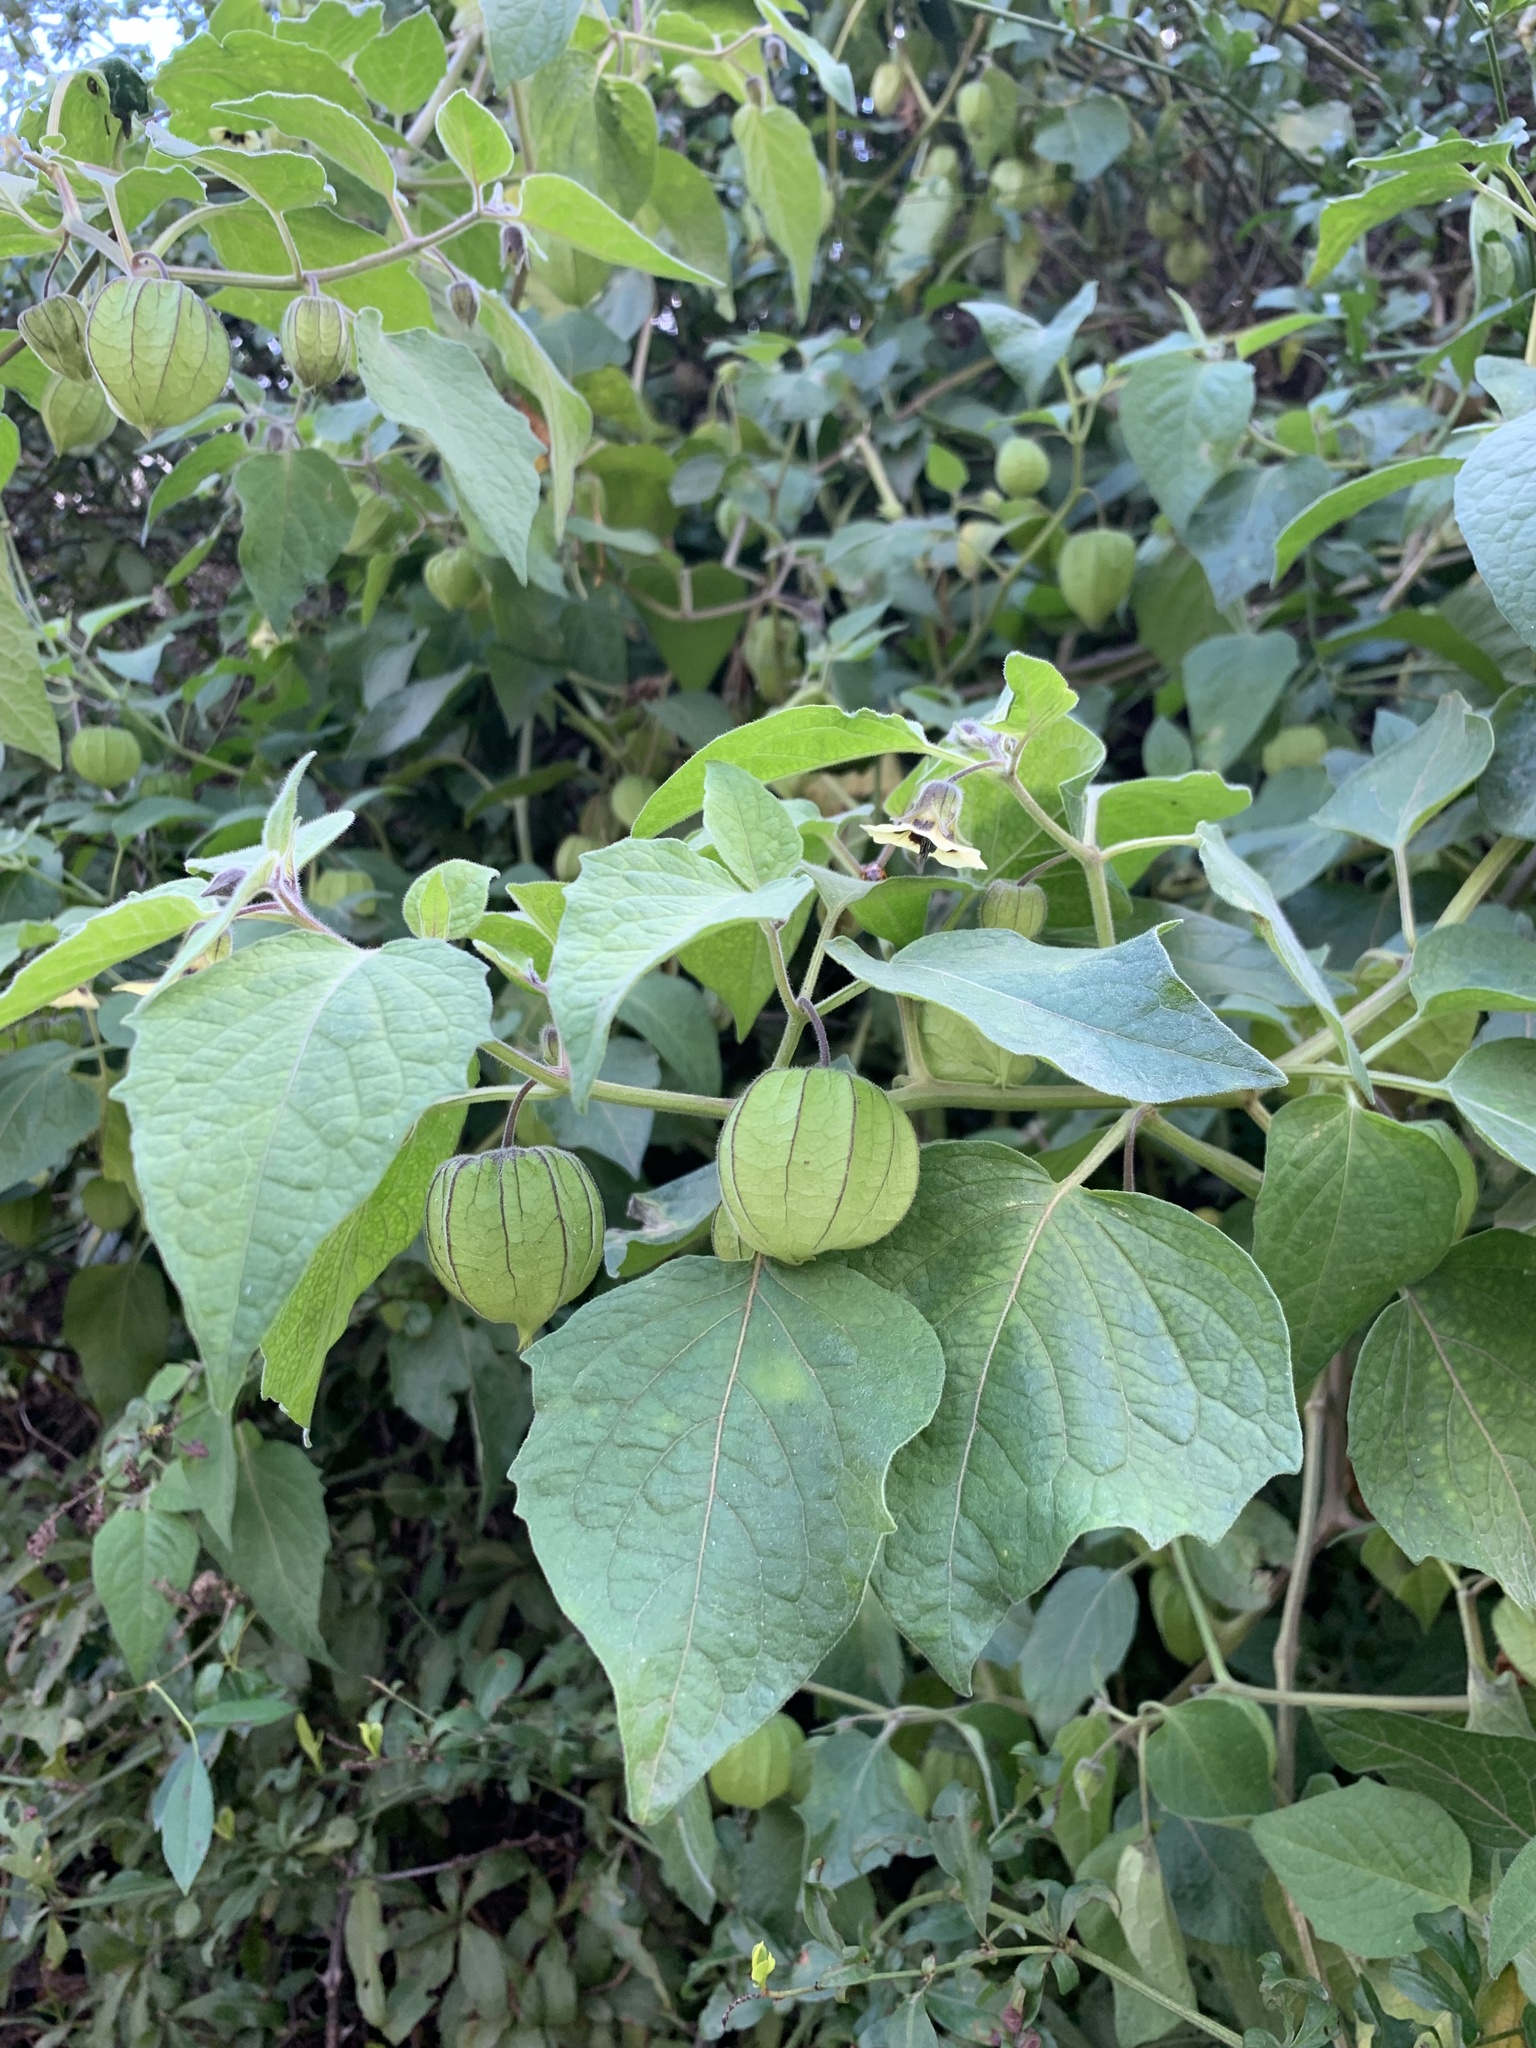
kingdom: Plantae
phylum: Tracheophyta
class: Magnoliopsida
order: Solanales
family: Solanaceae
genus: Physalis
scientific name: Physalis peruviana
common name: Cape-gooseberry
